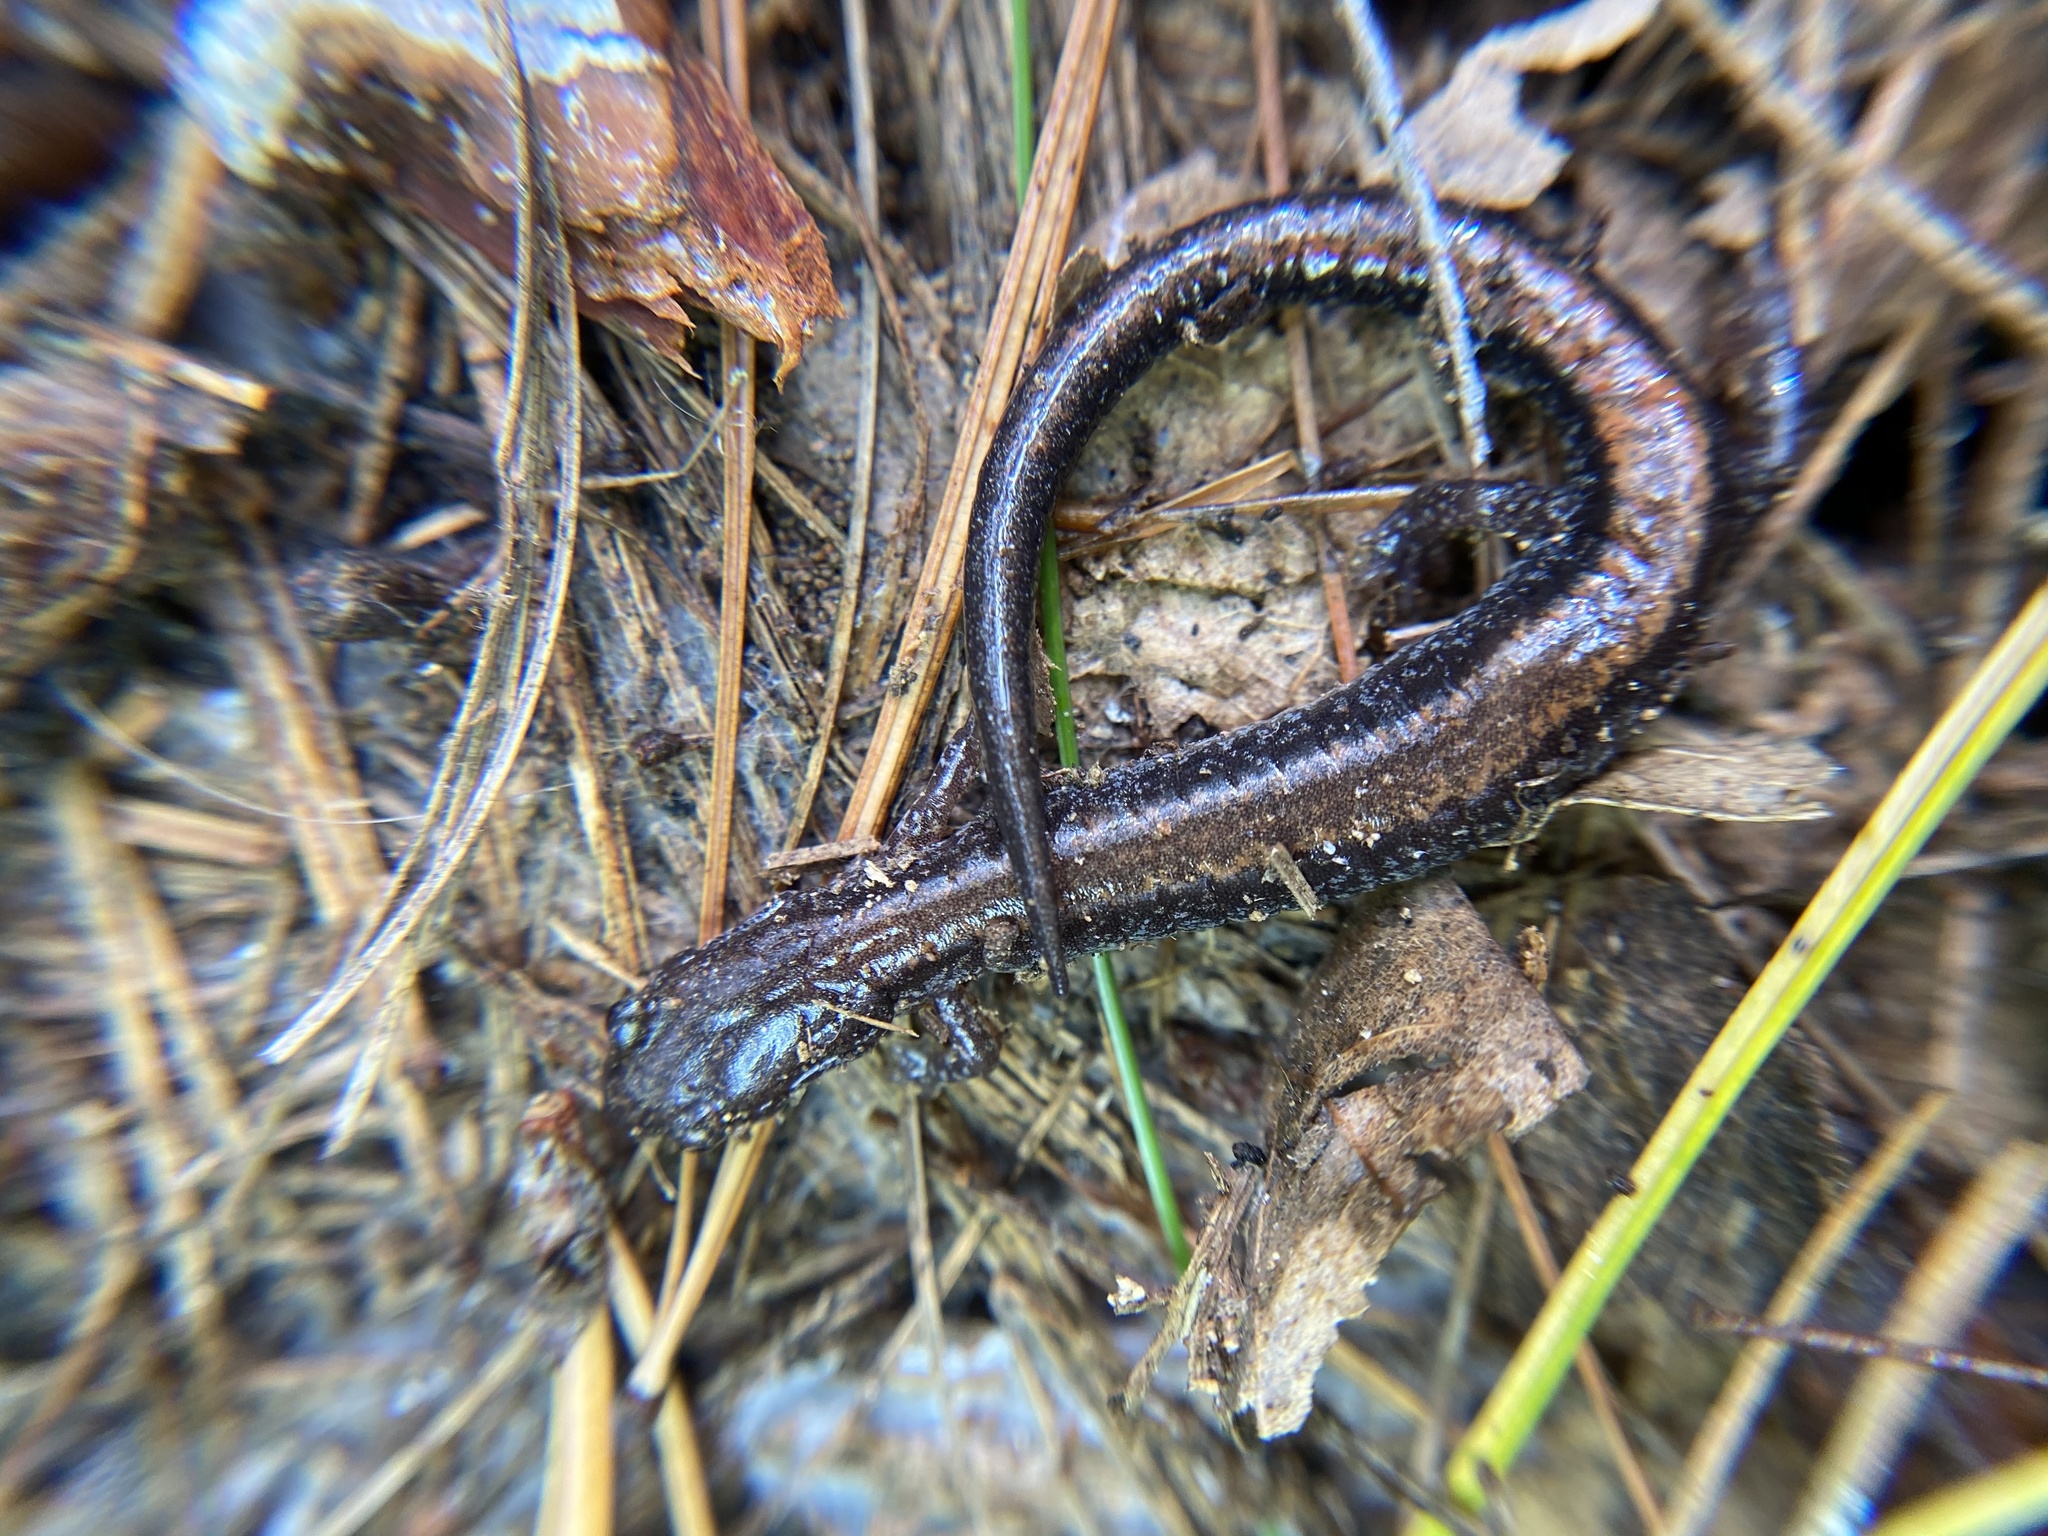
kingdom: Animalia
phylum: Chordata
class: Amphibia
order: Caudata
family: Plethodontidae
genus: Plethodon
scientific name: Plethodon cinereus
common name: Redback salamander
